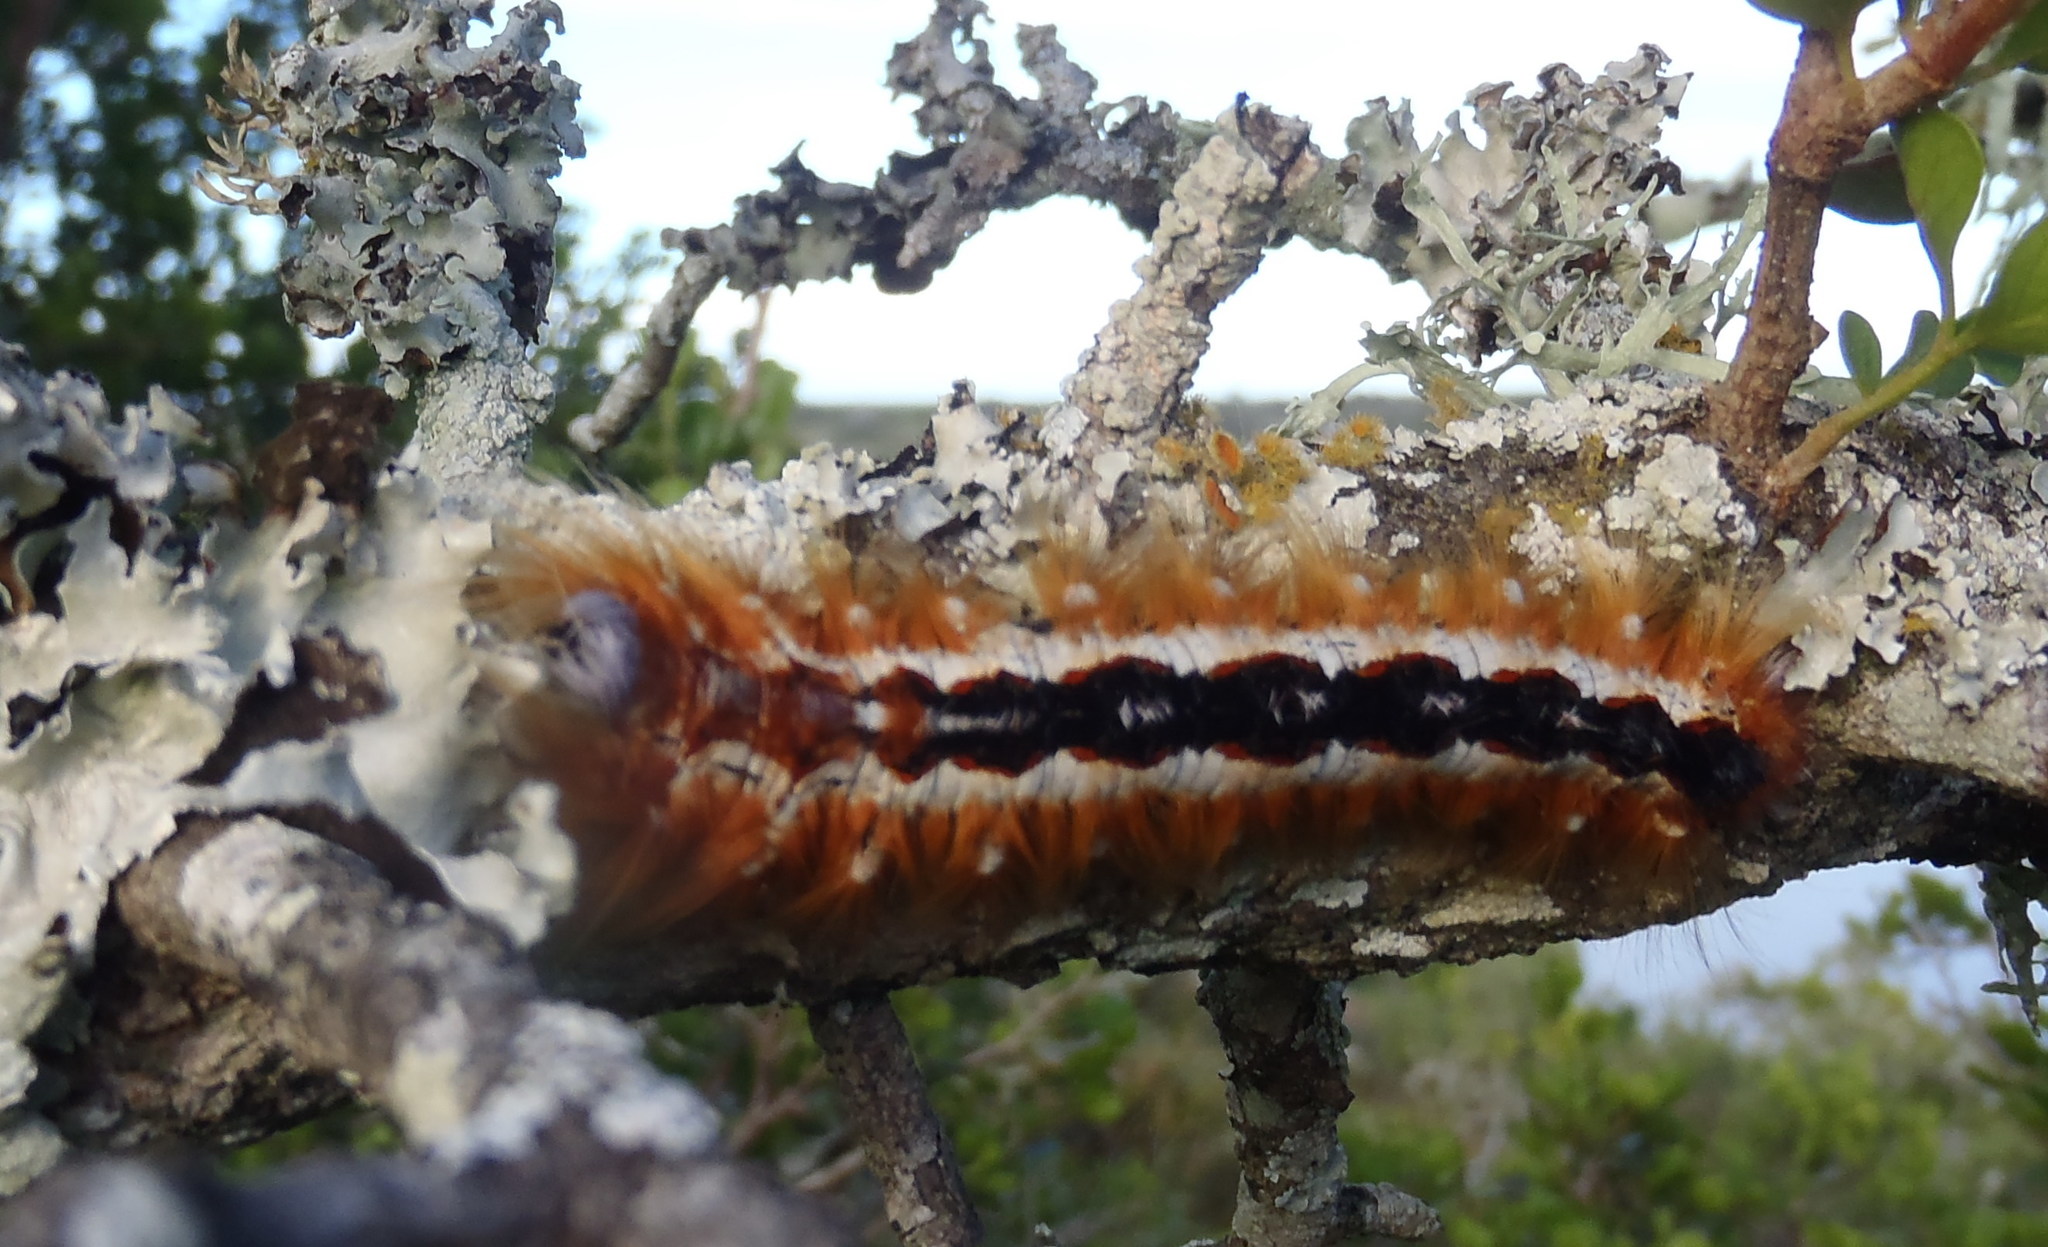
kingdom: Animalia
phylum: Arthropoda
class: Insecta
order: Lepidoptera
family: Lasiocampidae
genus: Eutricha
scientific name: Eutricha capensis
